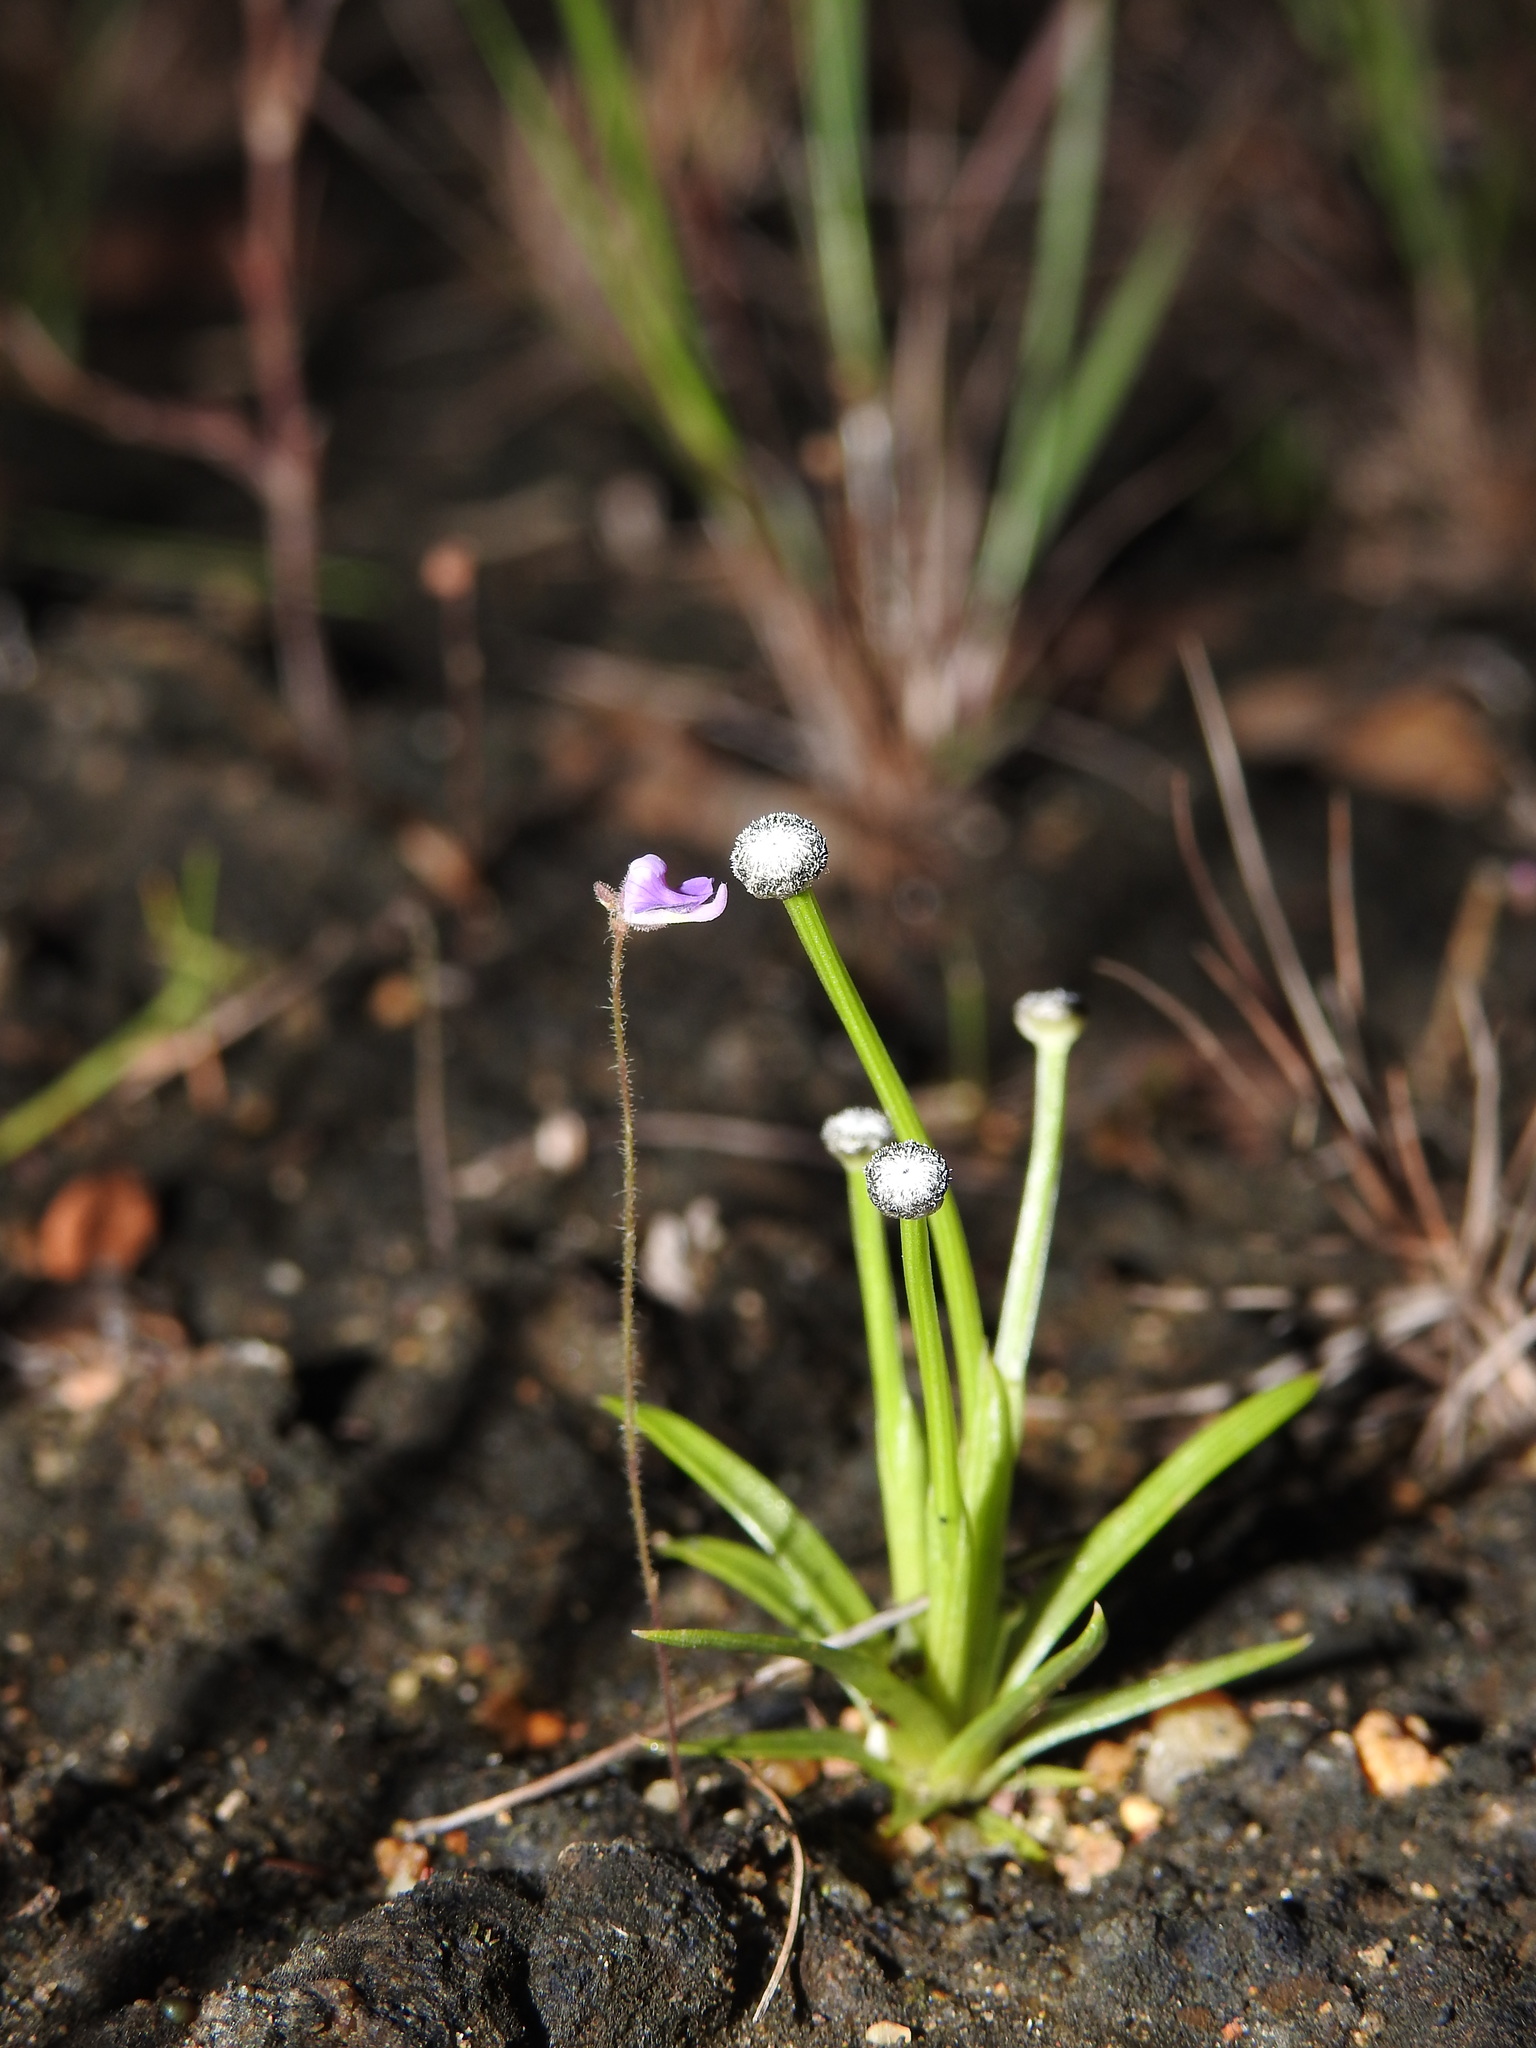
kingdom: Plantae
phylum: Tracheophyta
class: Magnoliopsida
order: Lamiales
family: Lentibulariaceae
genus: Utricularia
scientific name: Utricularia hirta
